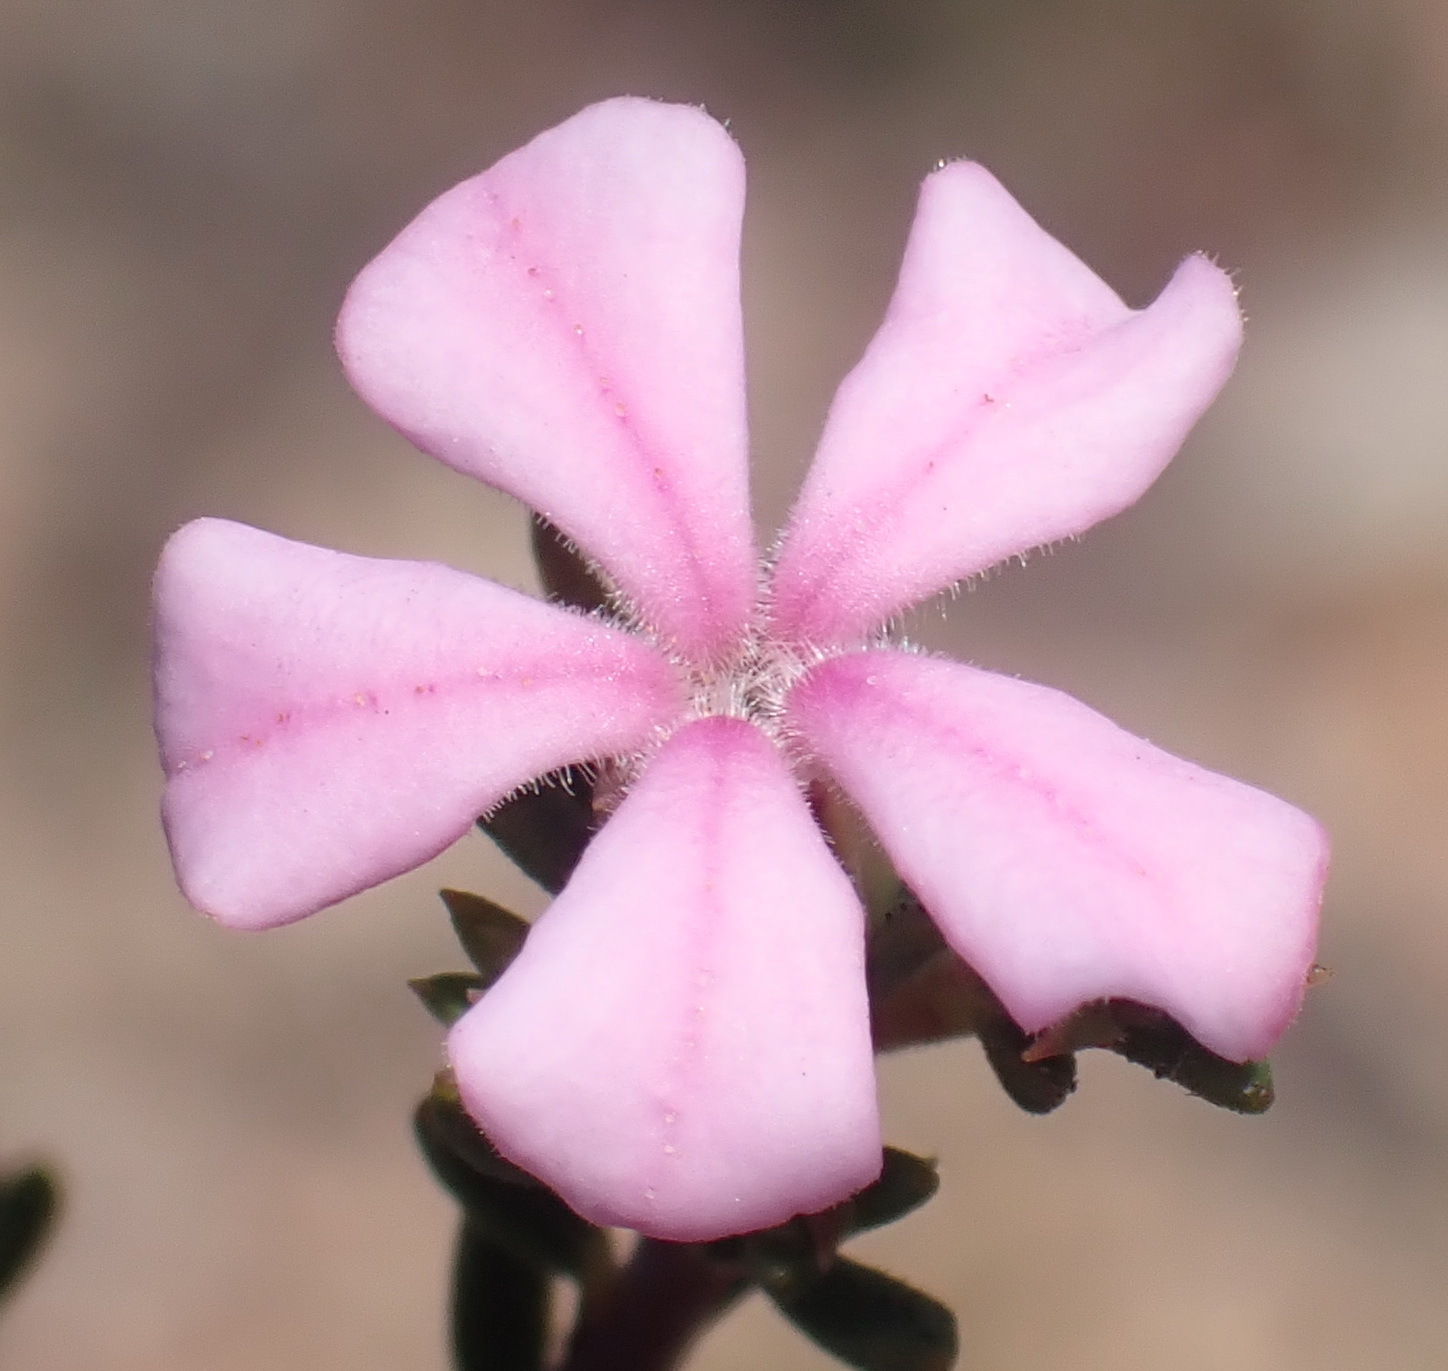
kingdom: Plantae
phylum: Tracheophyta
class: Magnoliopsida
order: Sapindales
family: Rutaceae
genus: Acmadenia
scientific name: Acmadenia maculata
